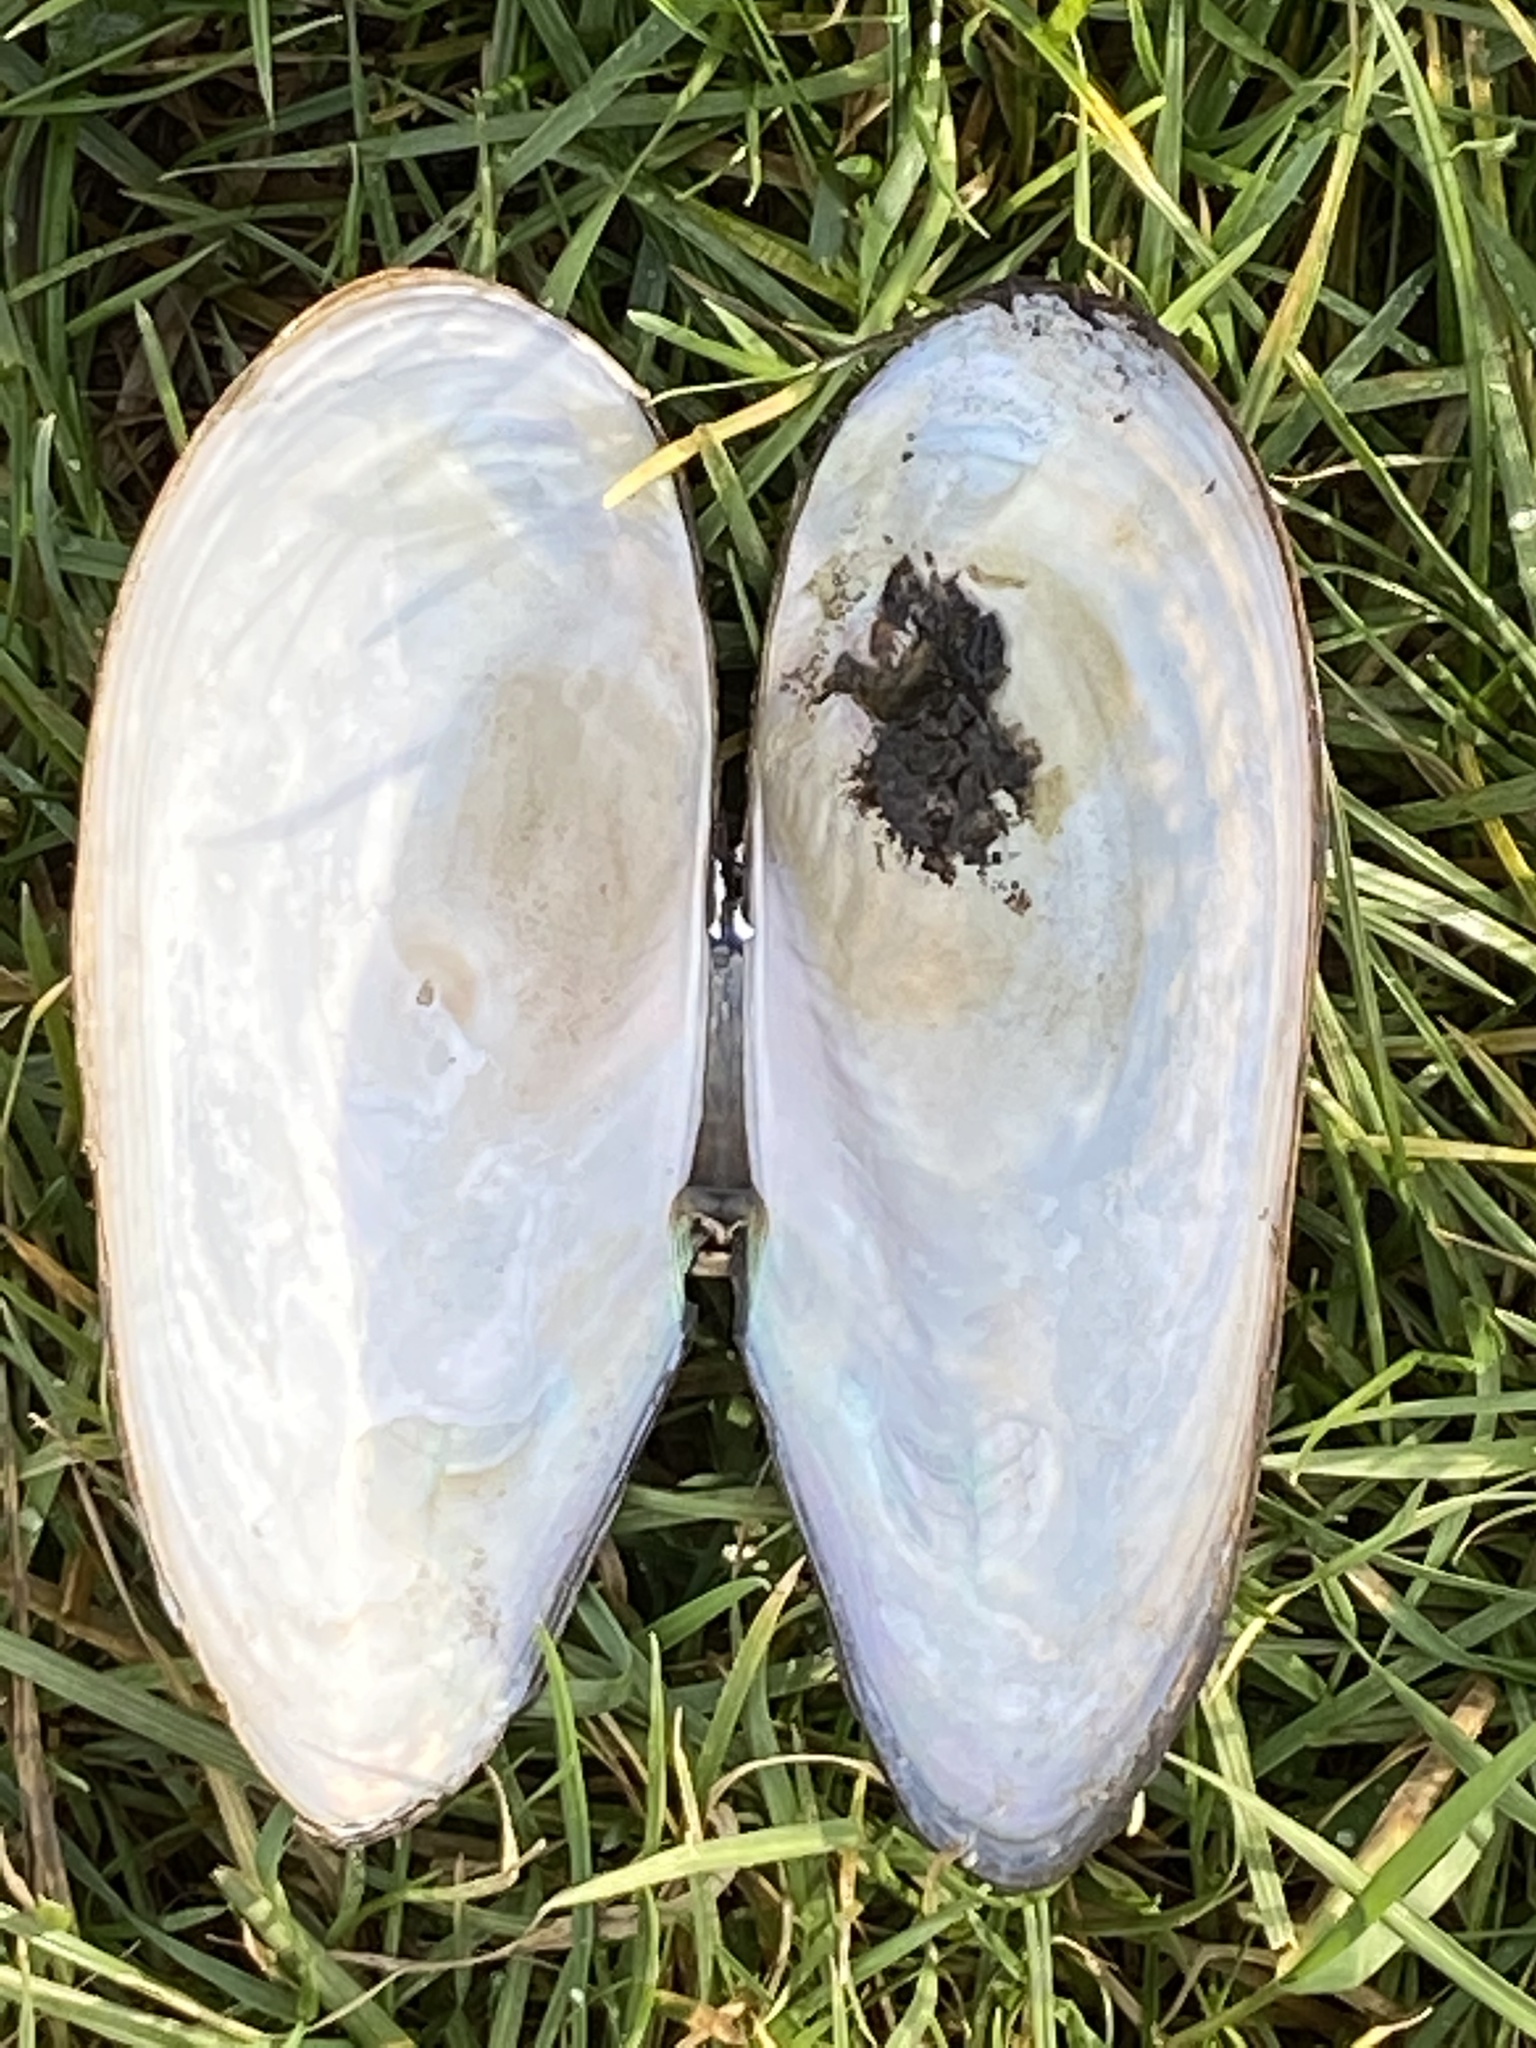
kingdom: Animalia
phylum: Mollusca
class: Bivalvia
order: Unionida
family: Unionidae
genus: Anodonta
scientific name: Anodonta cygnea
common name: Swan mussel
